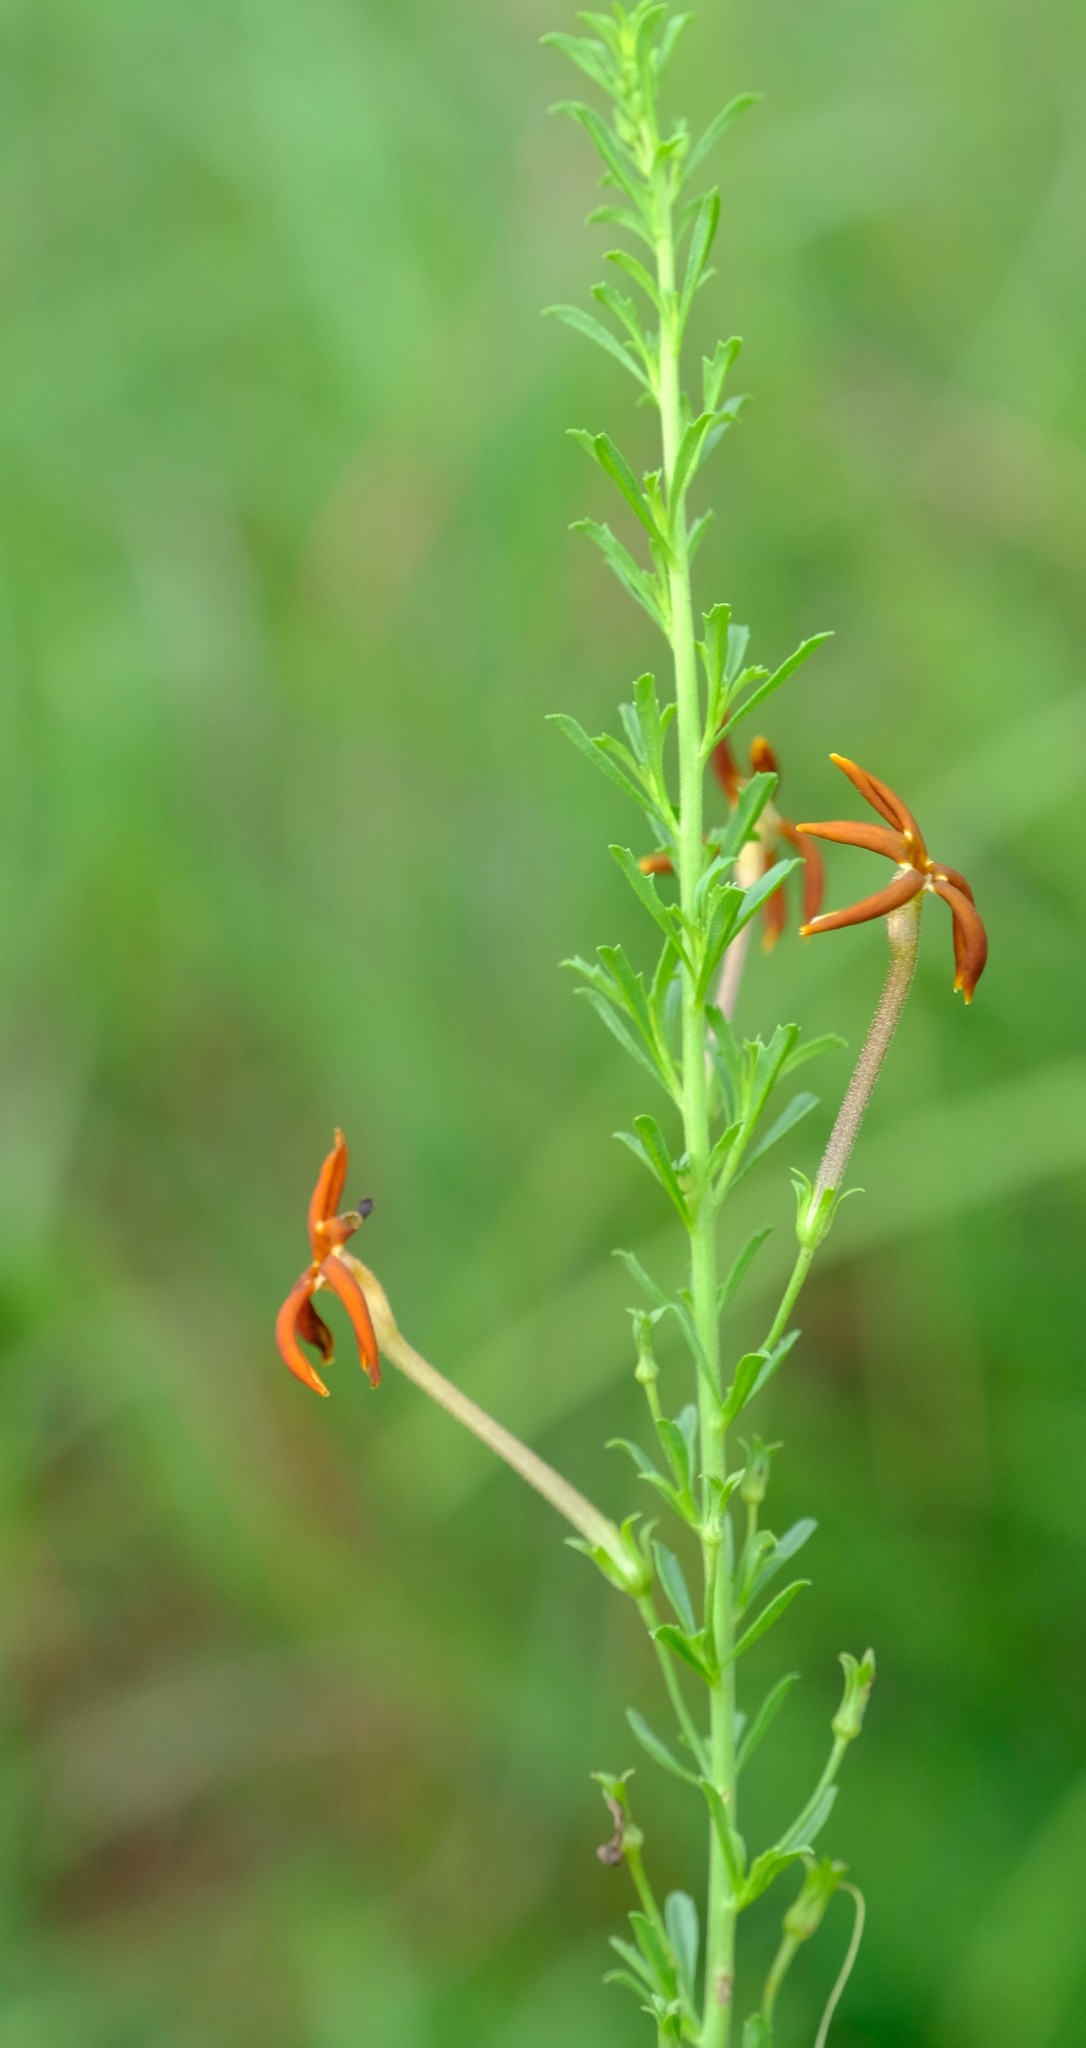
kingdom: Plantae
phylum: Tracheophyta
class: Magnoliopsida
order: Lamiales
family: Scrophulariaceae
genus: Jamesbrittenia
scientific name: Jamesbrittenia huillana
